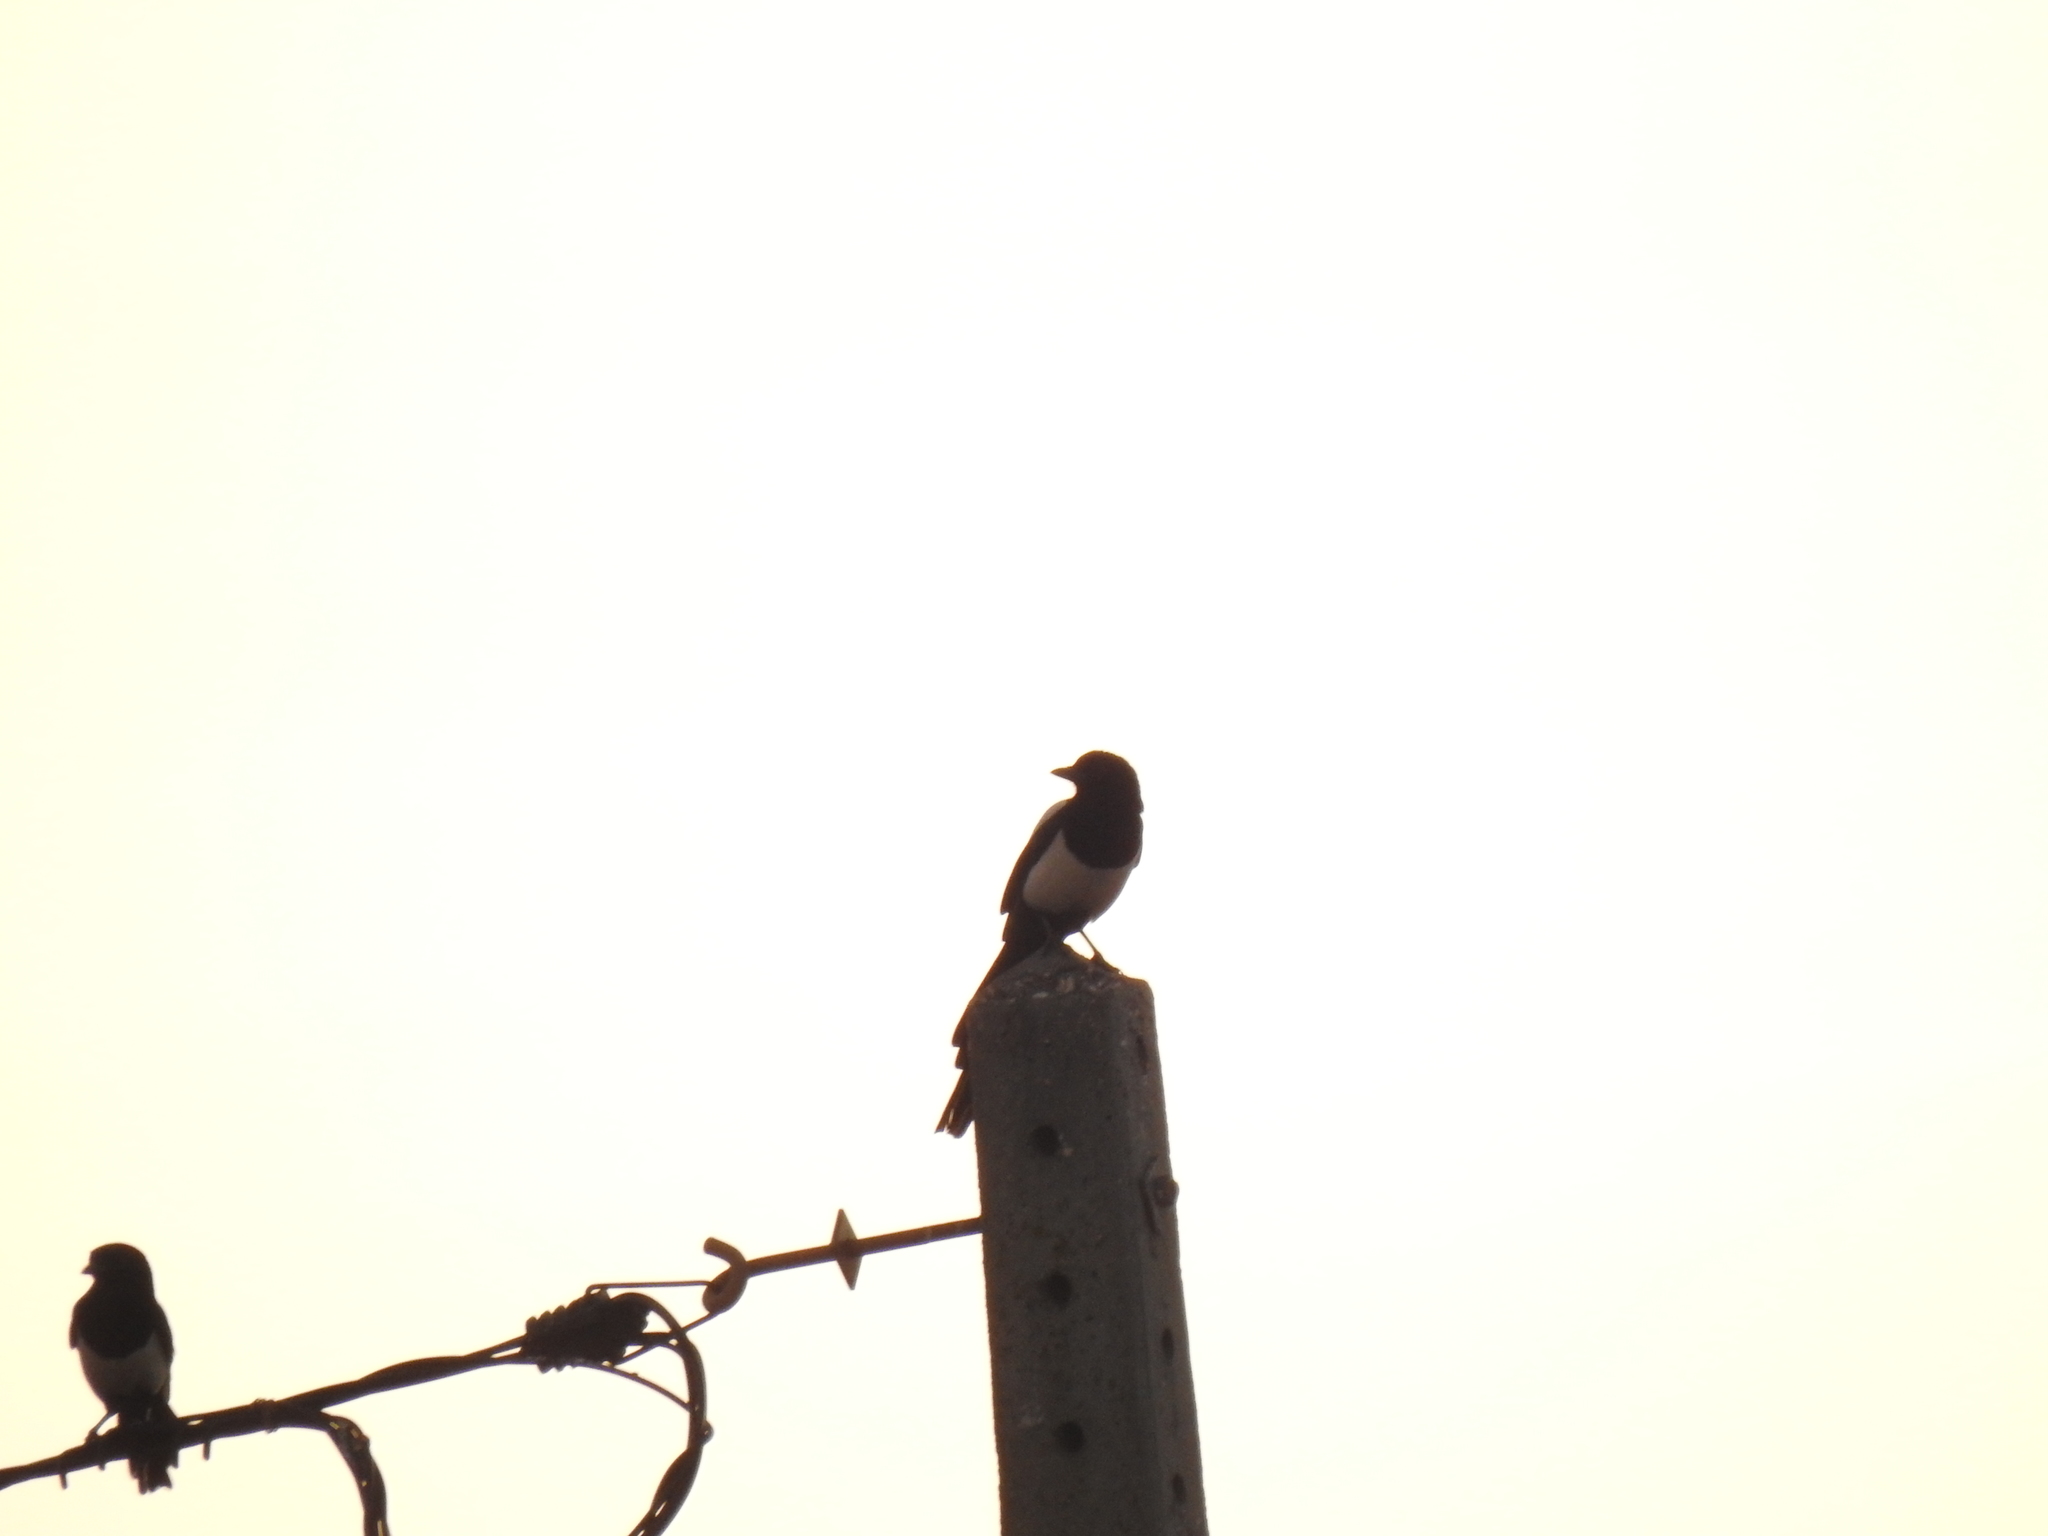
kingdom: Animalia
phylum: Chordata
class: Aves
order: Passeriformes
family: Corvidae
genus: Pica
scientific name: Pica pica
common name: Eurasian magpie
